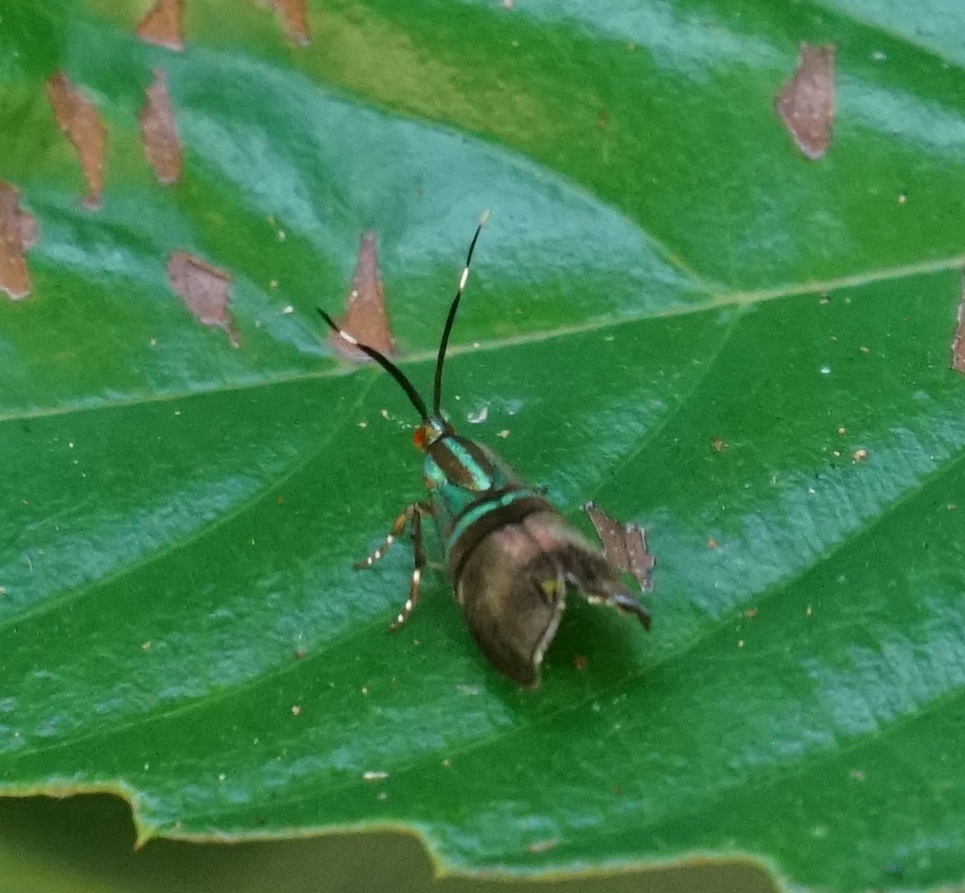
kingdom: Animalia
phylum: Arthropoda
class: Insecta
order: Lepidoptera
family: Choreutidae
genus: Saptha
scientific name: Saptha libanota
